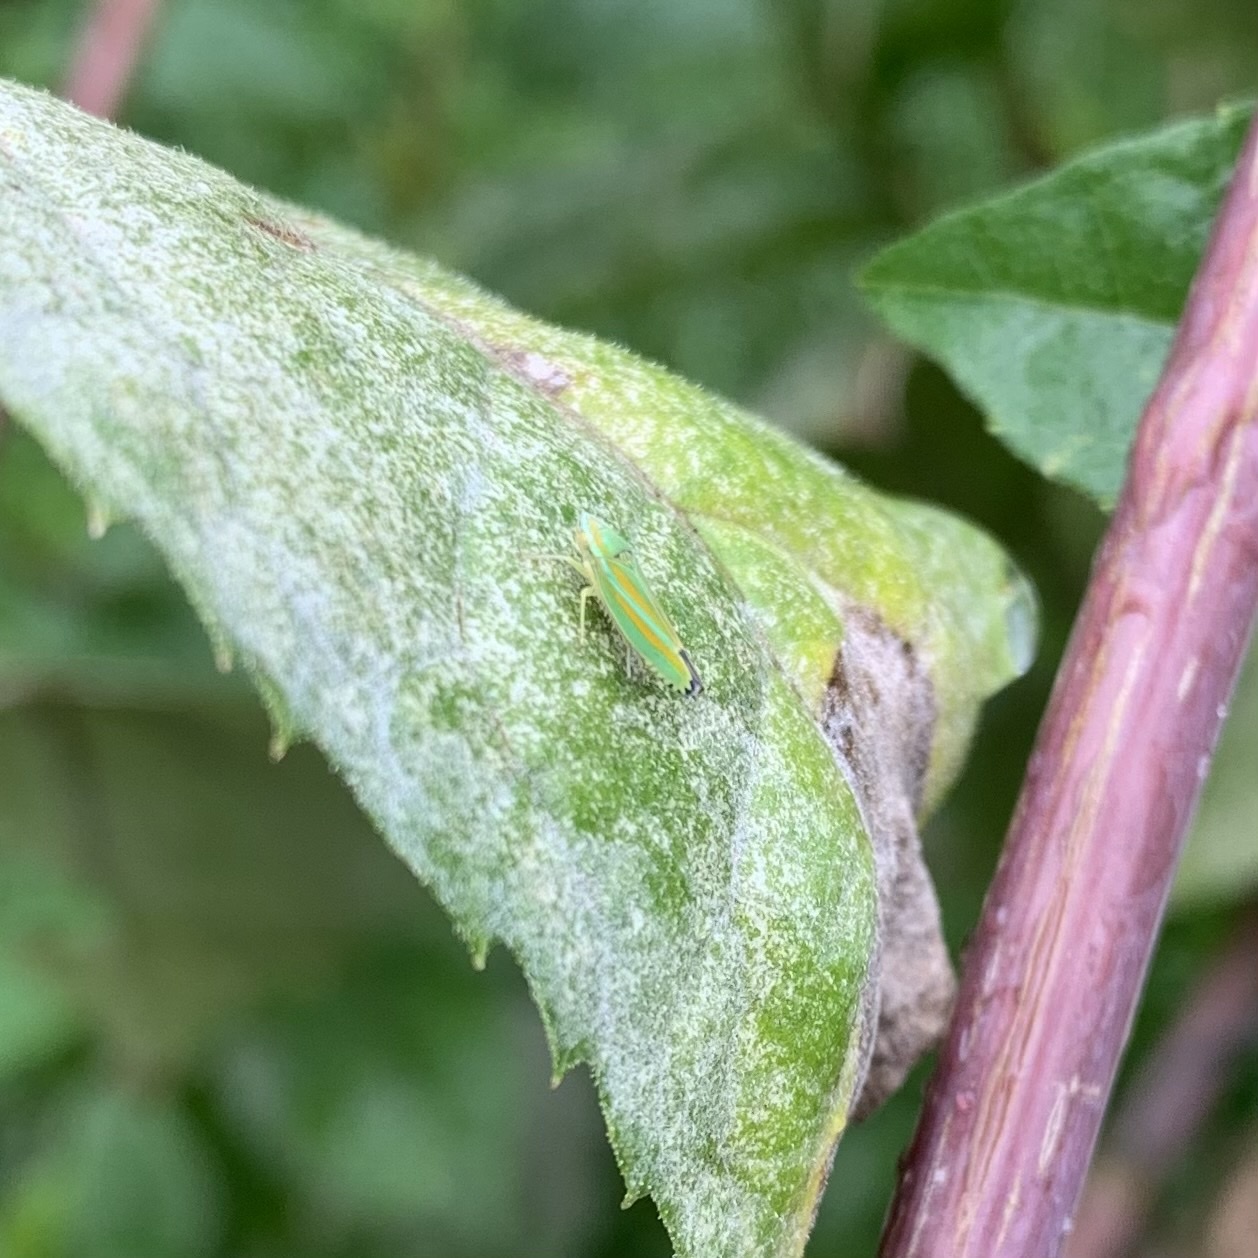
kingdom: Animalia
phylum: Arthropoda
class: Insecta
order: Hemiptera
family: Cicadellidae
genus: Graphocephala
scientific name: Graphocephala versuta
